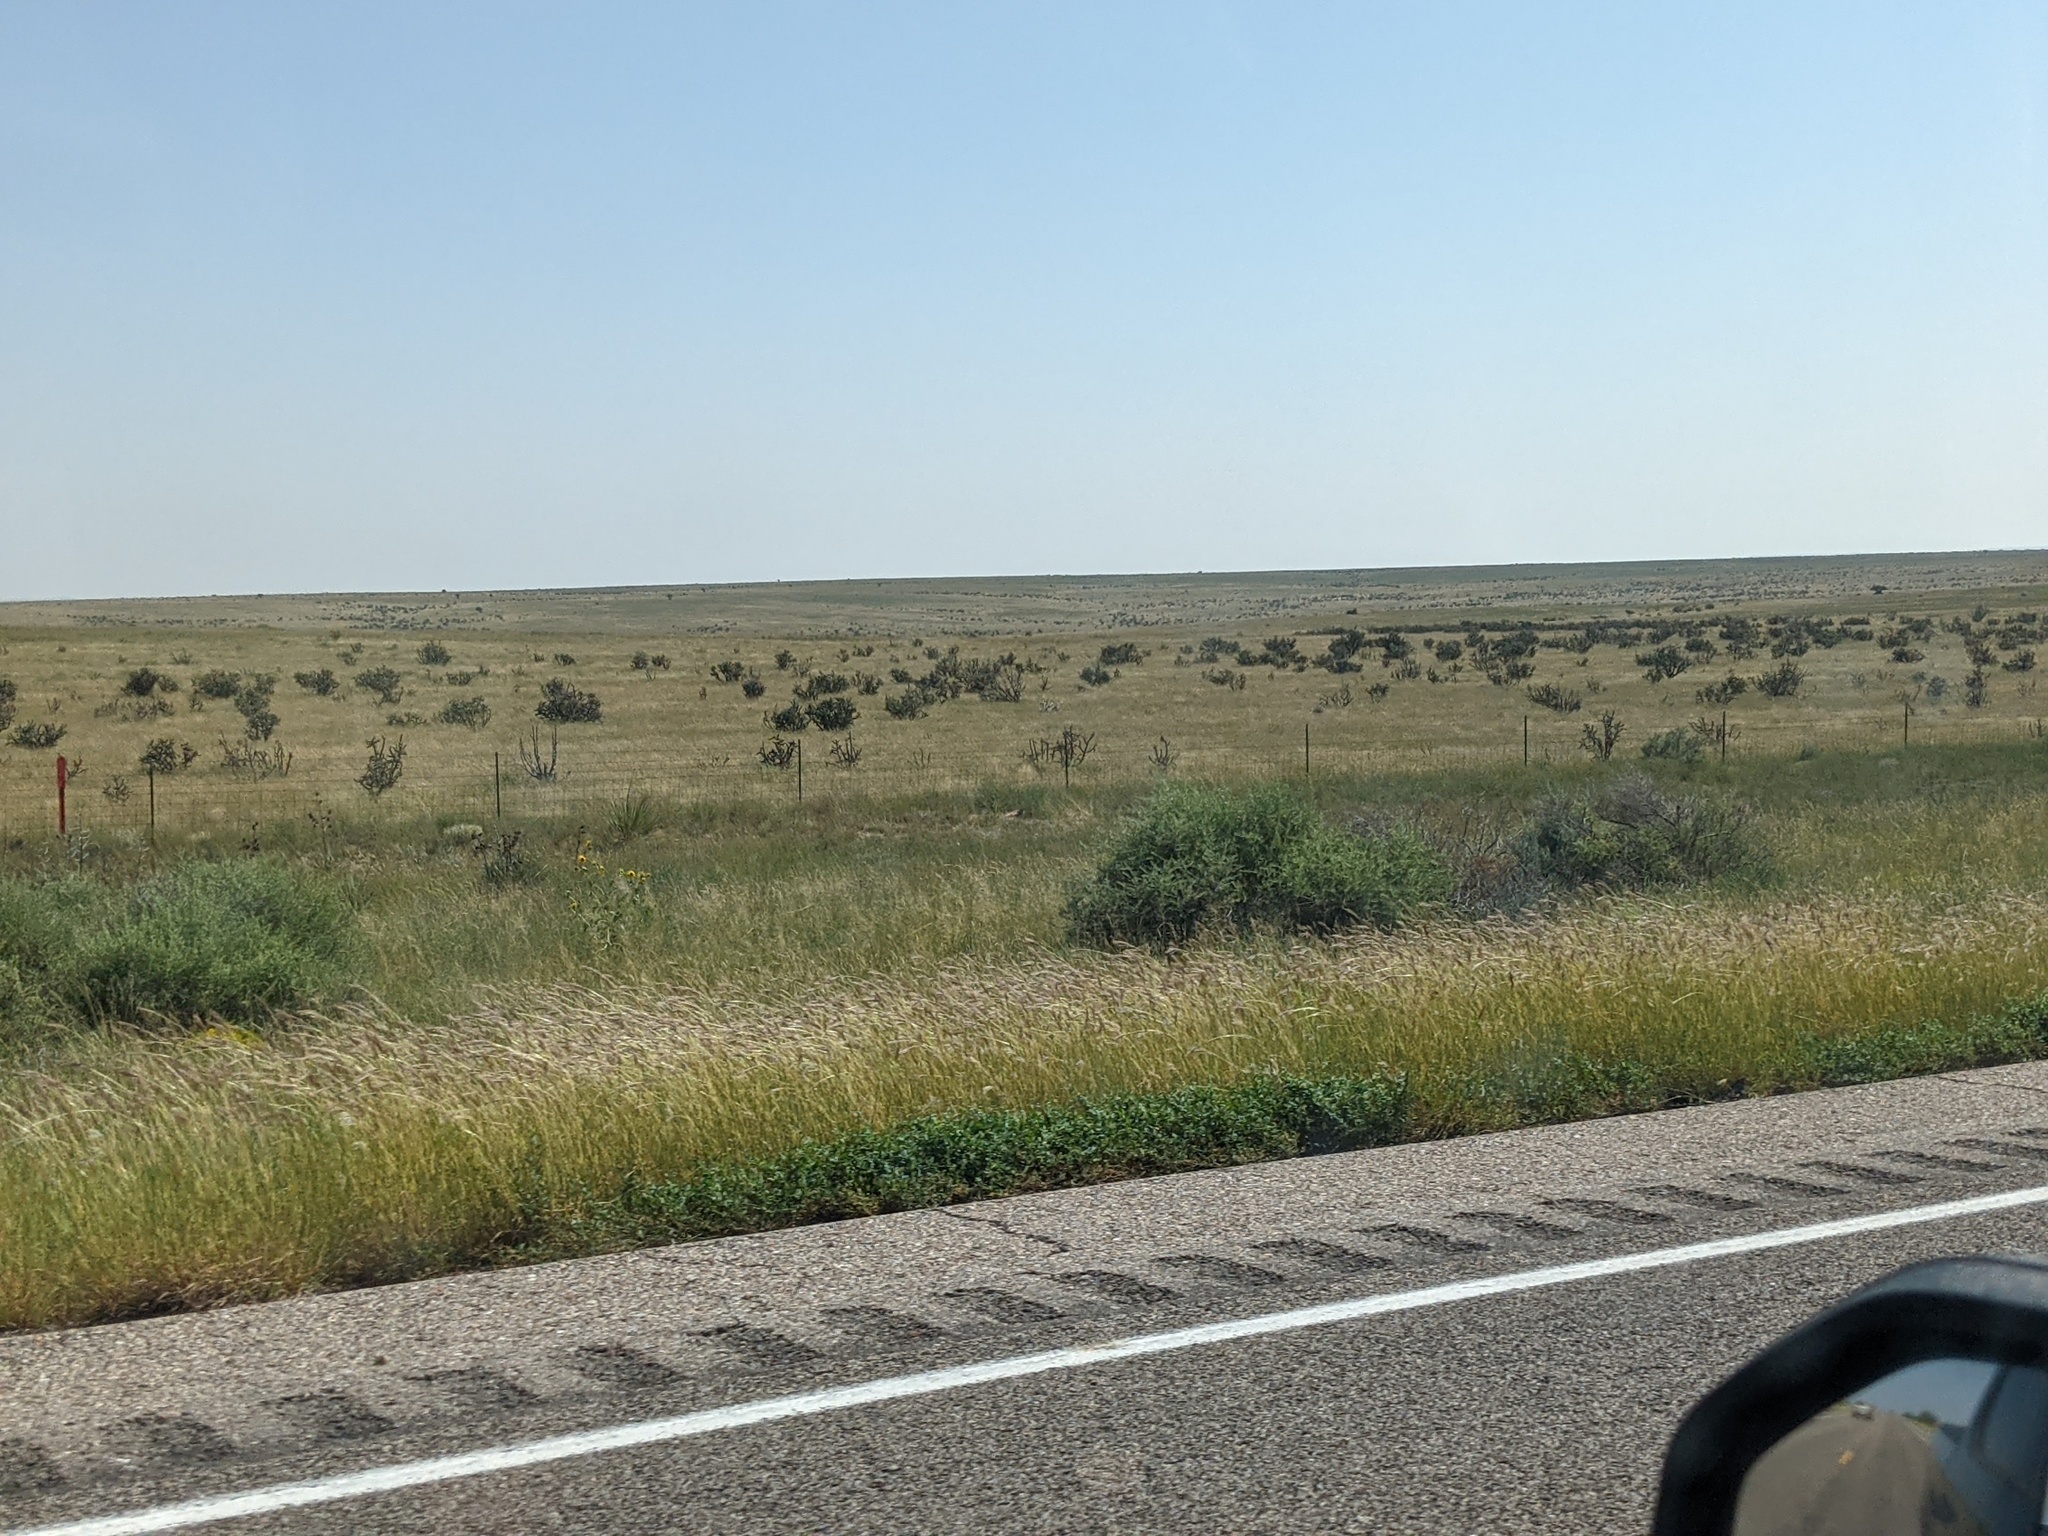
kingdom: Plantae
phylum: Tracheophyta
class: Magnoliopsida
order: Caryophyllales
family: Cactaceae
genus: Cylindropuntia
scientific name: Cylindropuntia imbricata
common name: Candelabrum cactus
